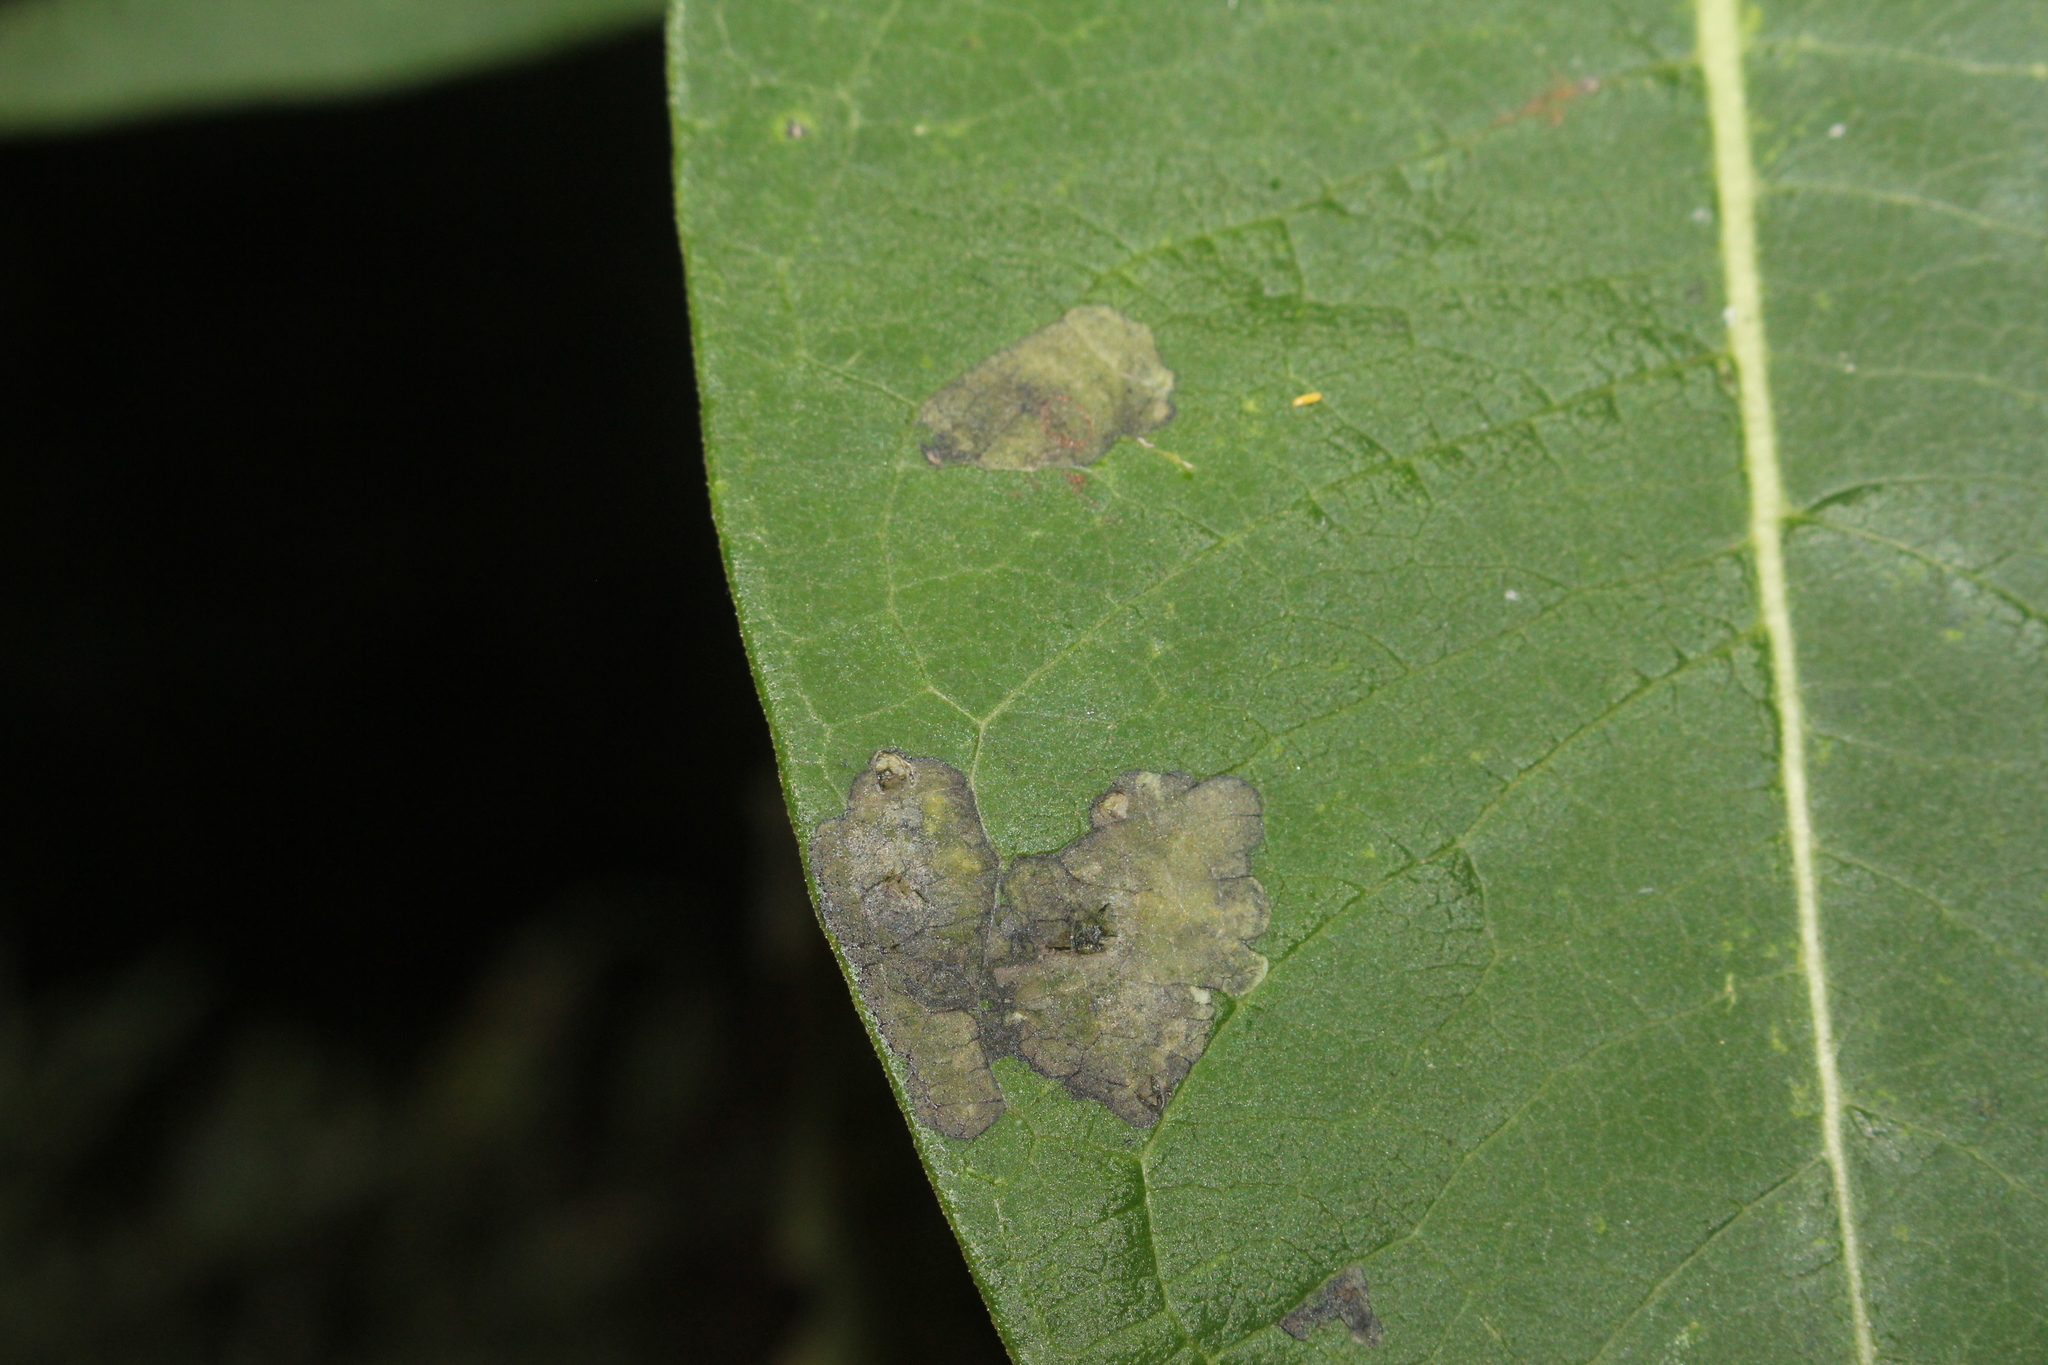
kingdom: Animalia
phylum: Arthropoda
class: Insecta
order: Diptera
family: Agromyzidae
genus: Liriomyza
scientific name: Liriomyza asclepiadis
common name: Milkweed leaf-miner fly
